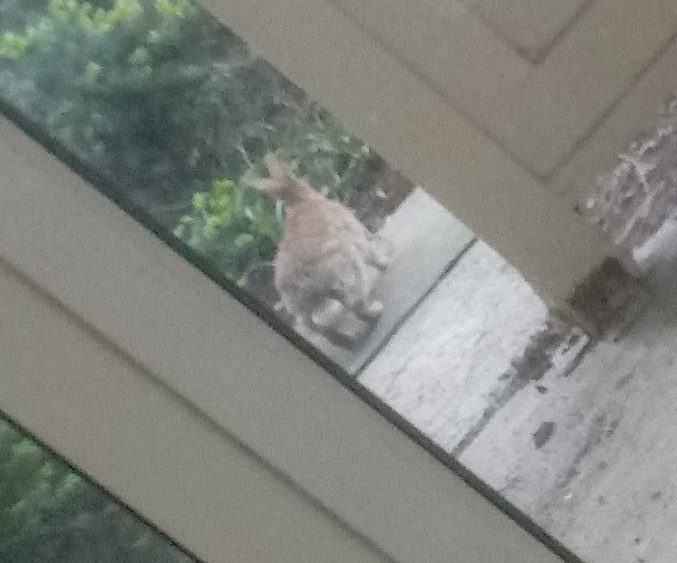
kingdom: Animalia
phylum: Chordata
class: Mammalia
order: Lagomorpha
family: Leporidae
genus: Sylvilagus
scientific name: Sylvilagus floridanus
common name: Eastern cottontail
